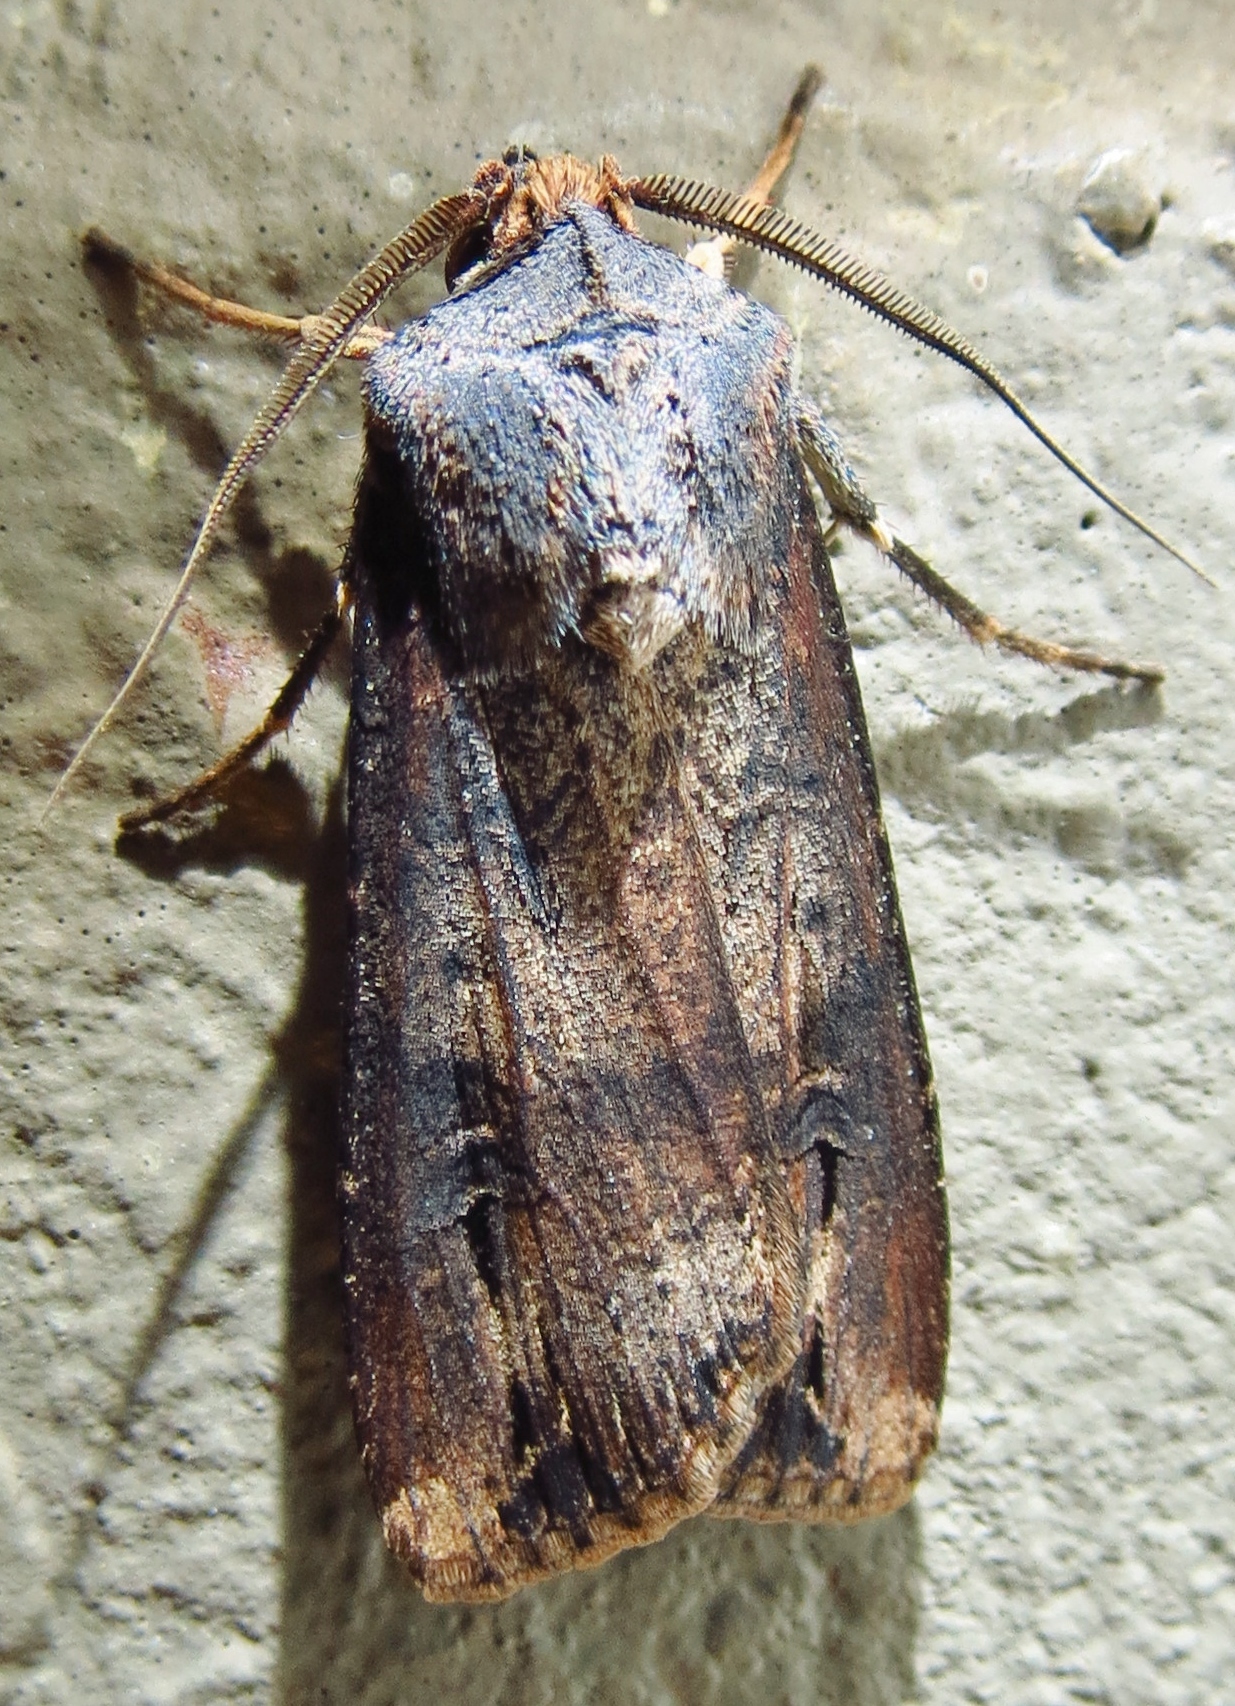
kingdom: Animalia
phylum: Arthropoda
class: Insecta
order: Lepidoptera
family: Noctuidae
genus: Agrotis
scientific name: Agrotis ipsilon
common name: Dark sword-grass
